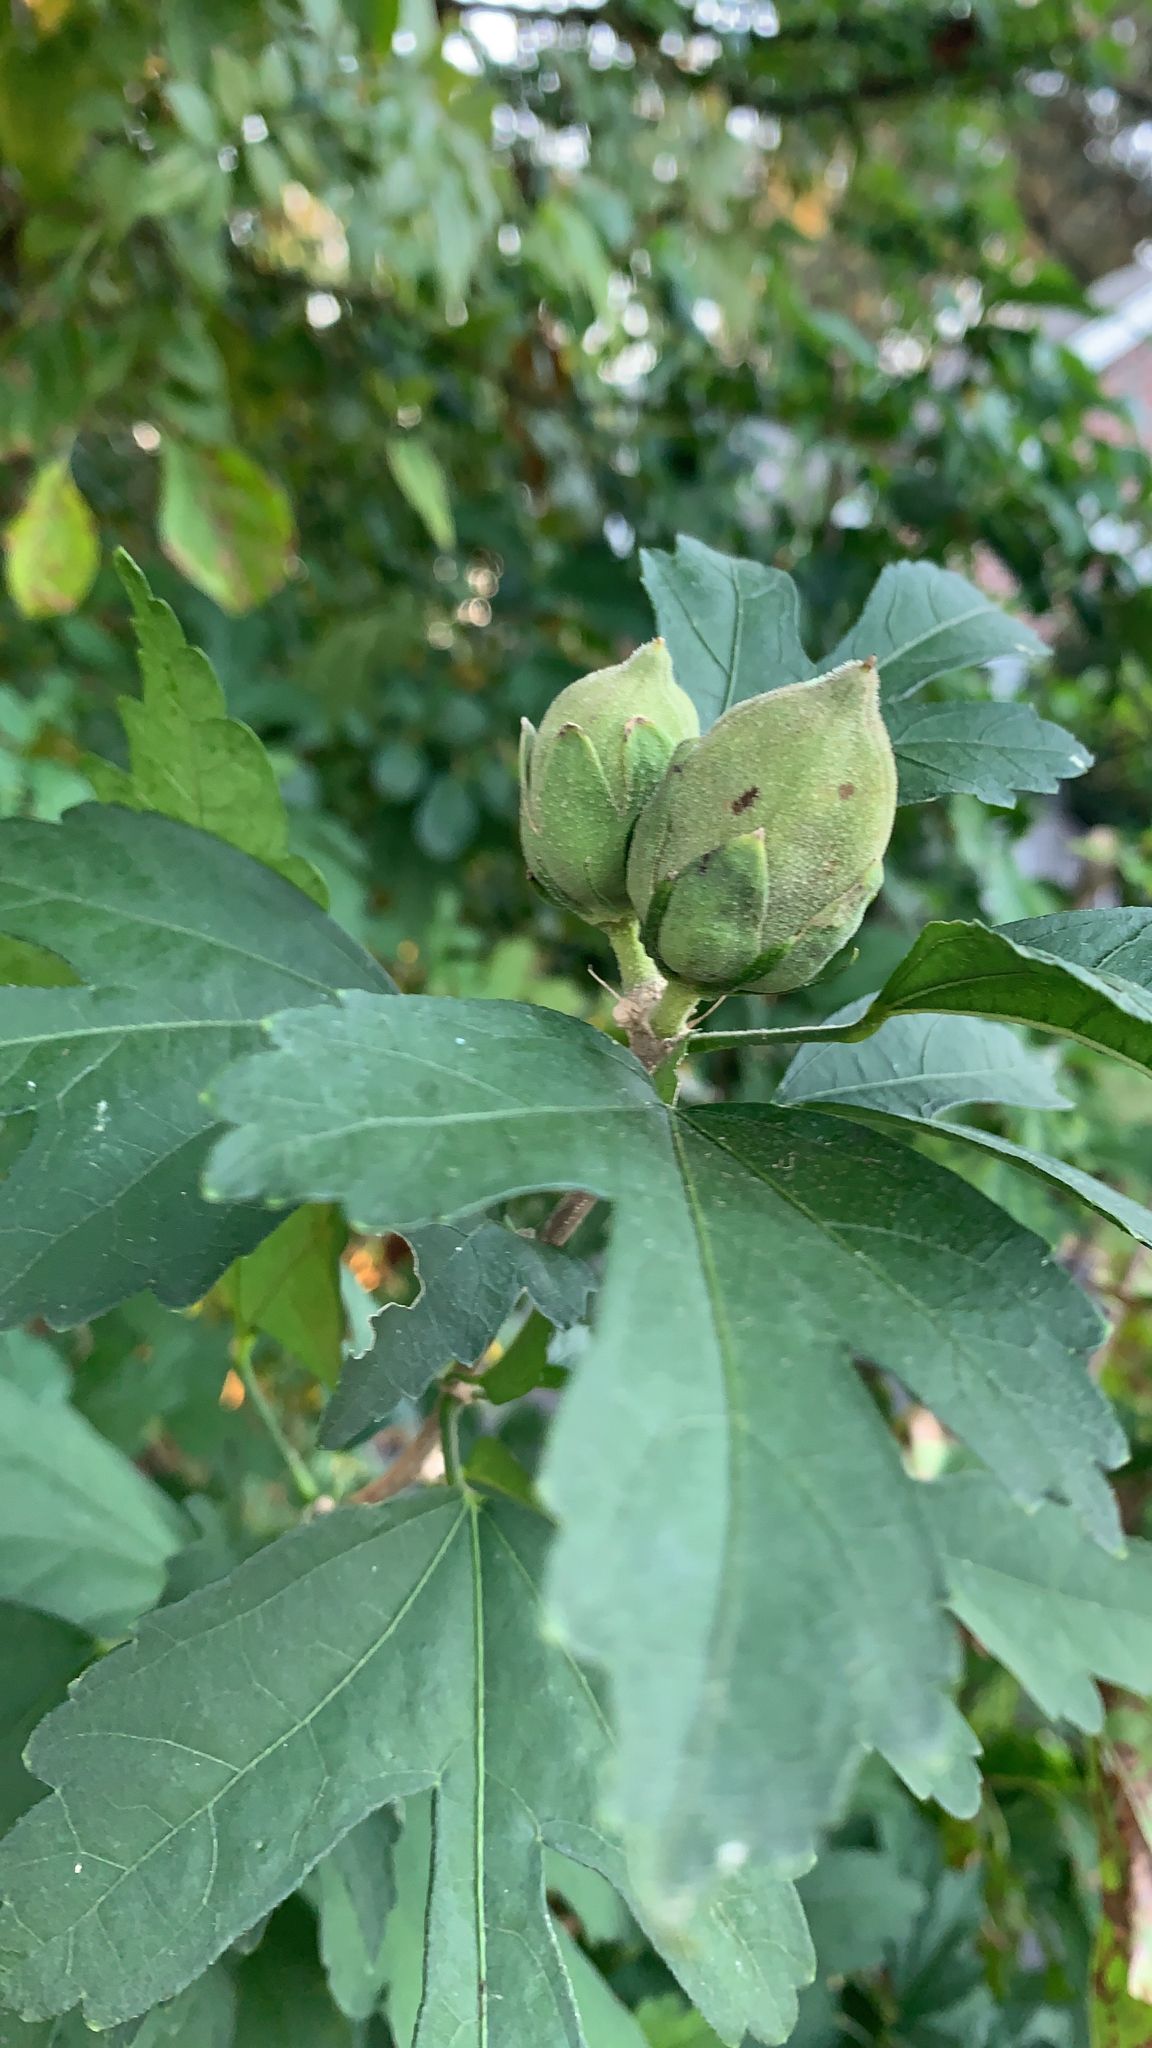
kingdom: Plantae
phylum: Tracheophyta
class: Magnoliopsida
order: Malvales
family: Malvaceae
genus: Hibiscus
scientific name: Hibiscus syriacus
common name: Syrian ketmia
